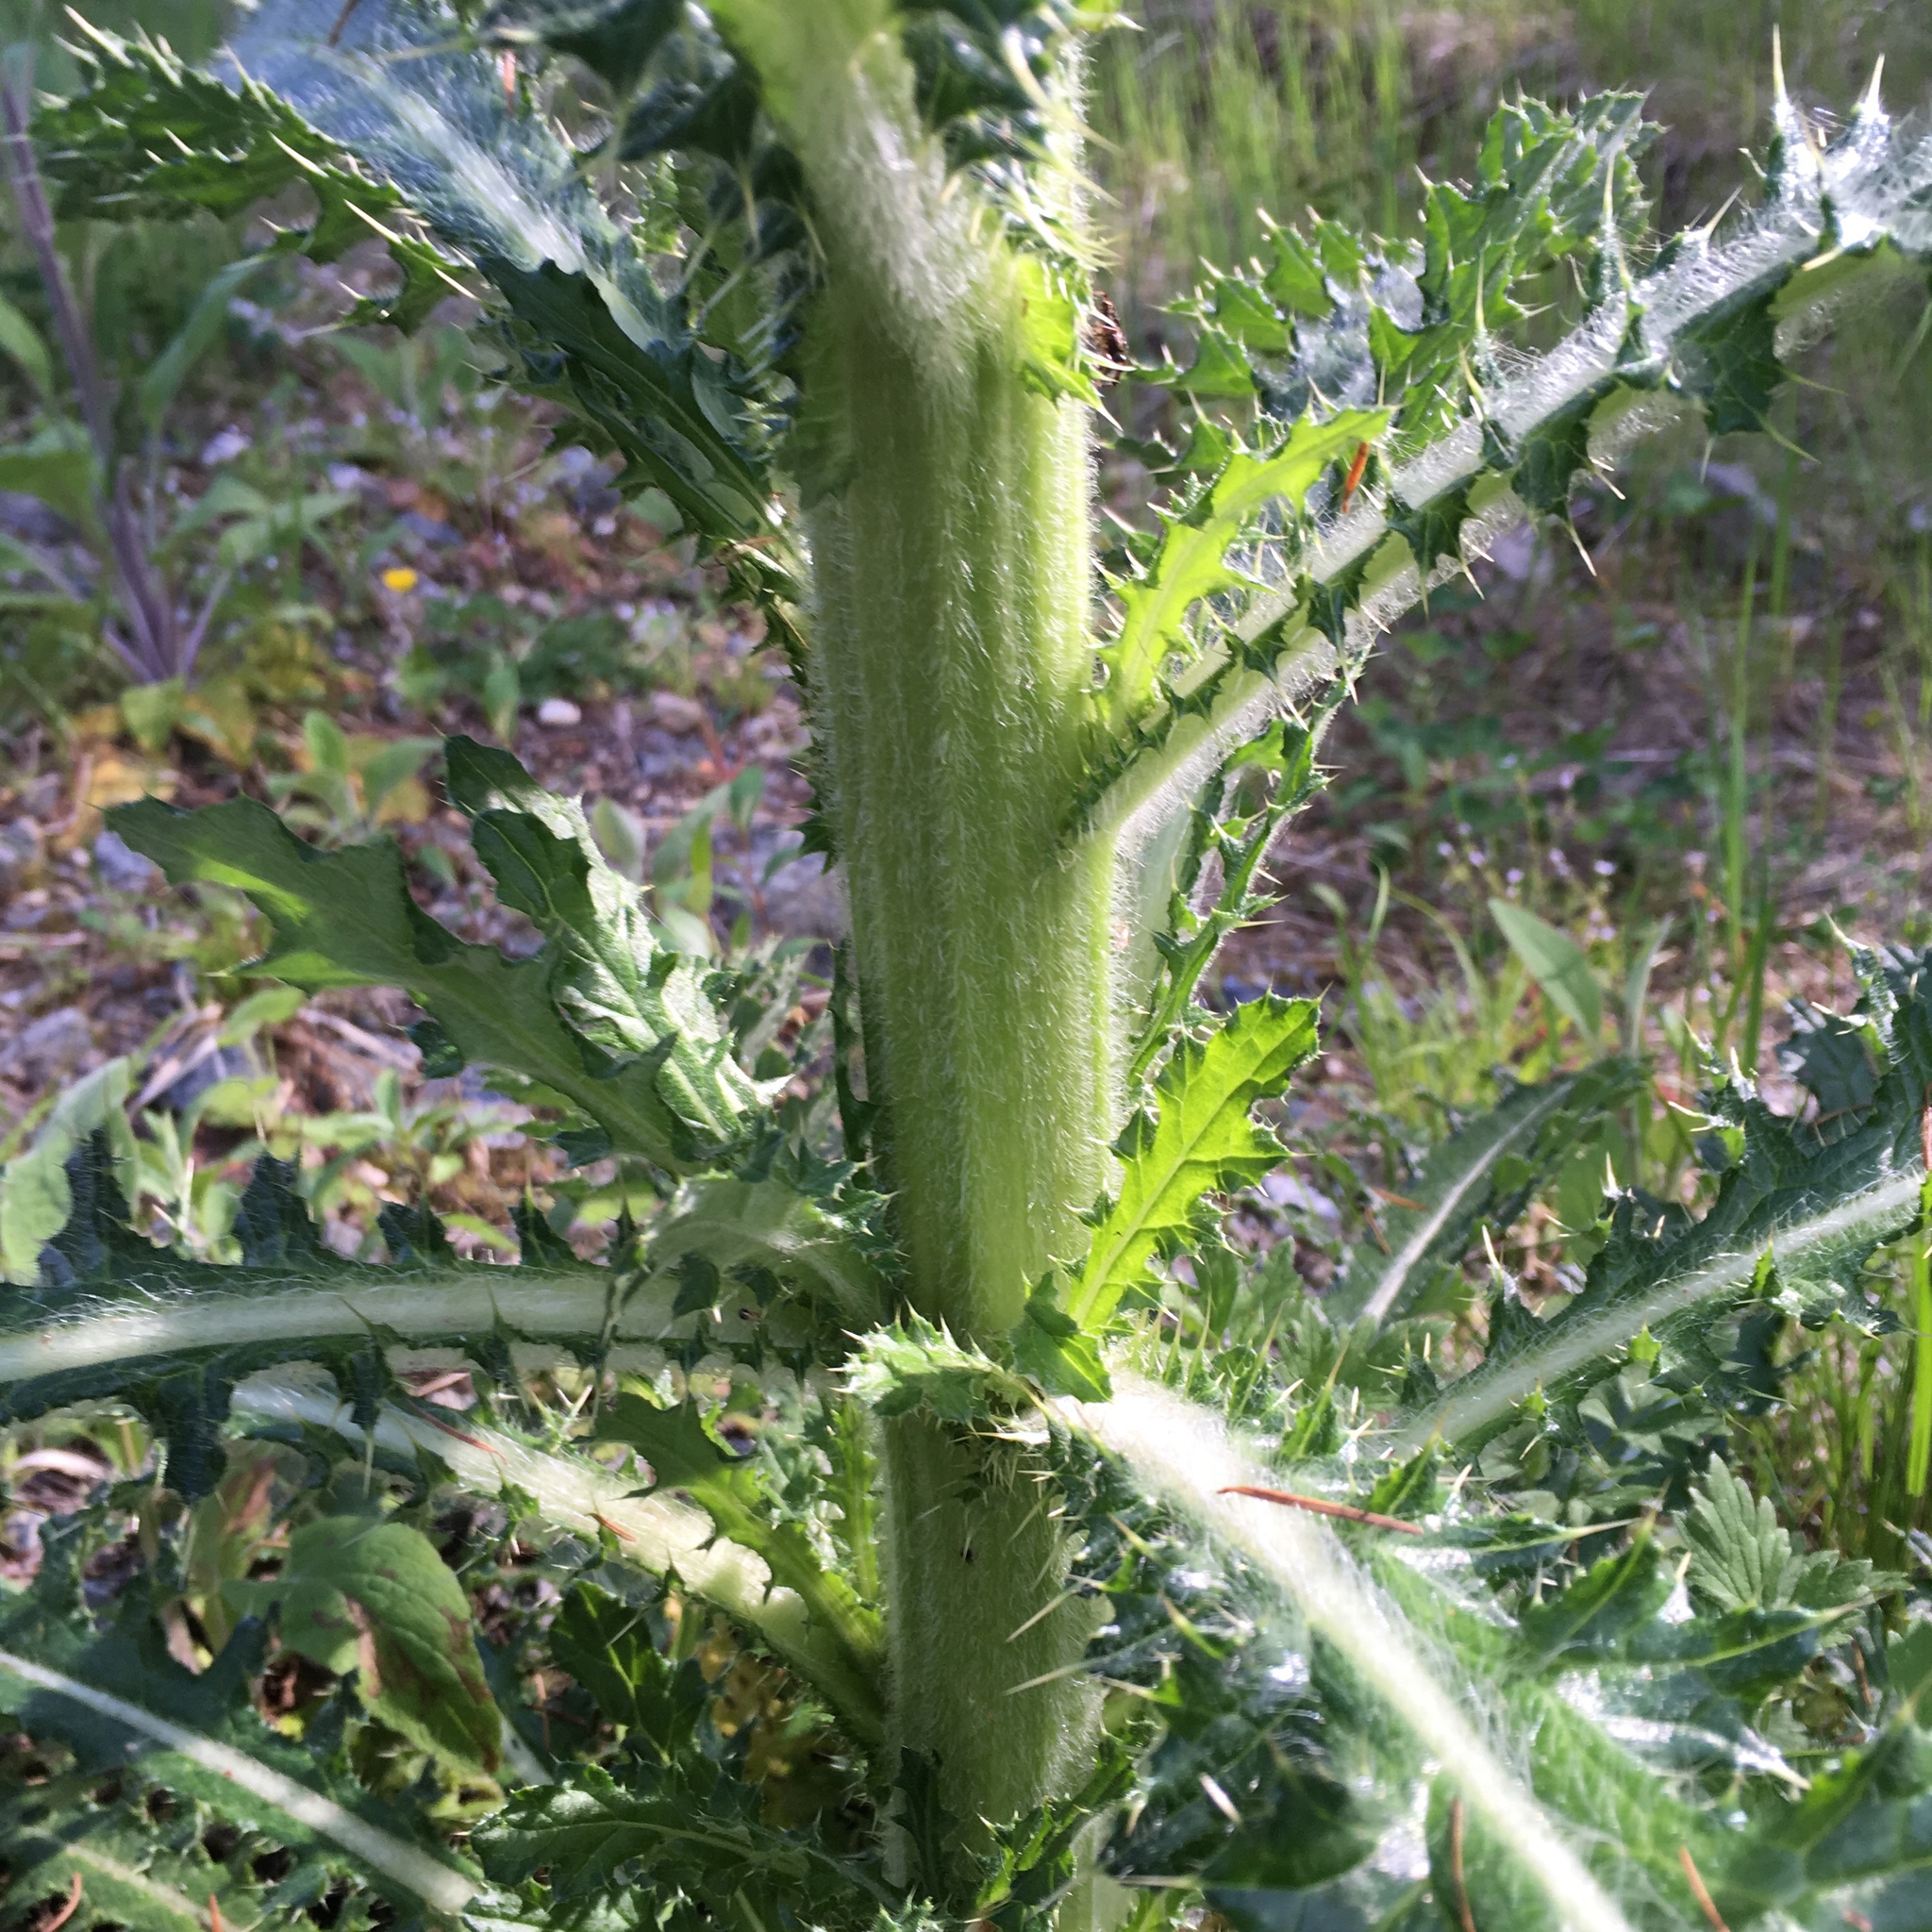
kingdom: Plantae
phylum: Tracheophyta
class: Magnoliopsida
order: Asterales
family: Asteraceae
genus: Cirsium
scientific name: Cirsium brevistylum
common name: Indian thistle
